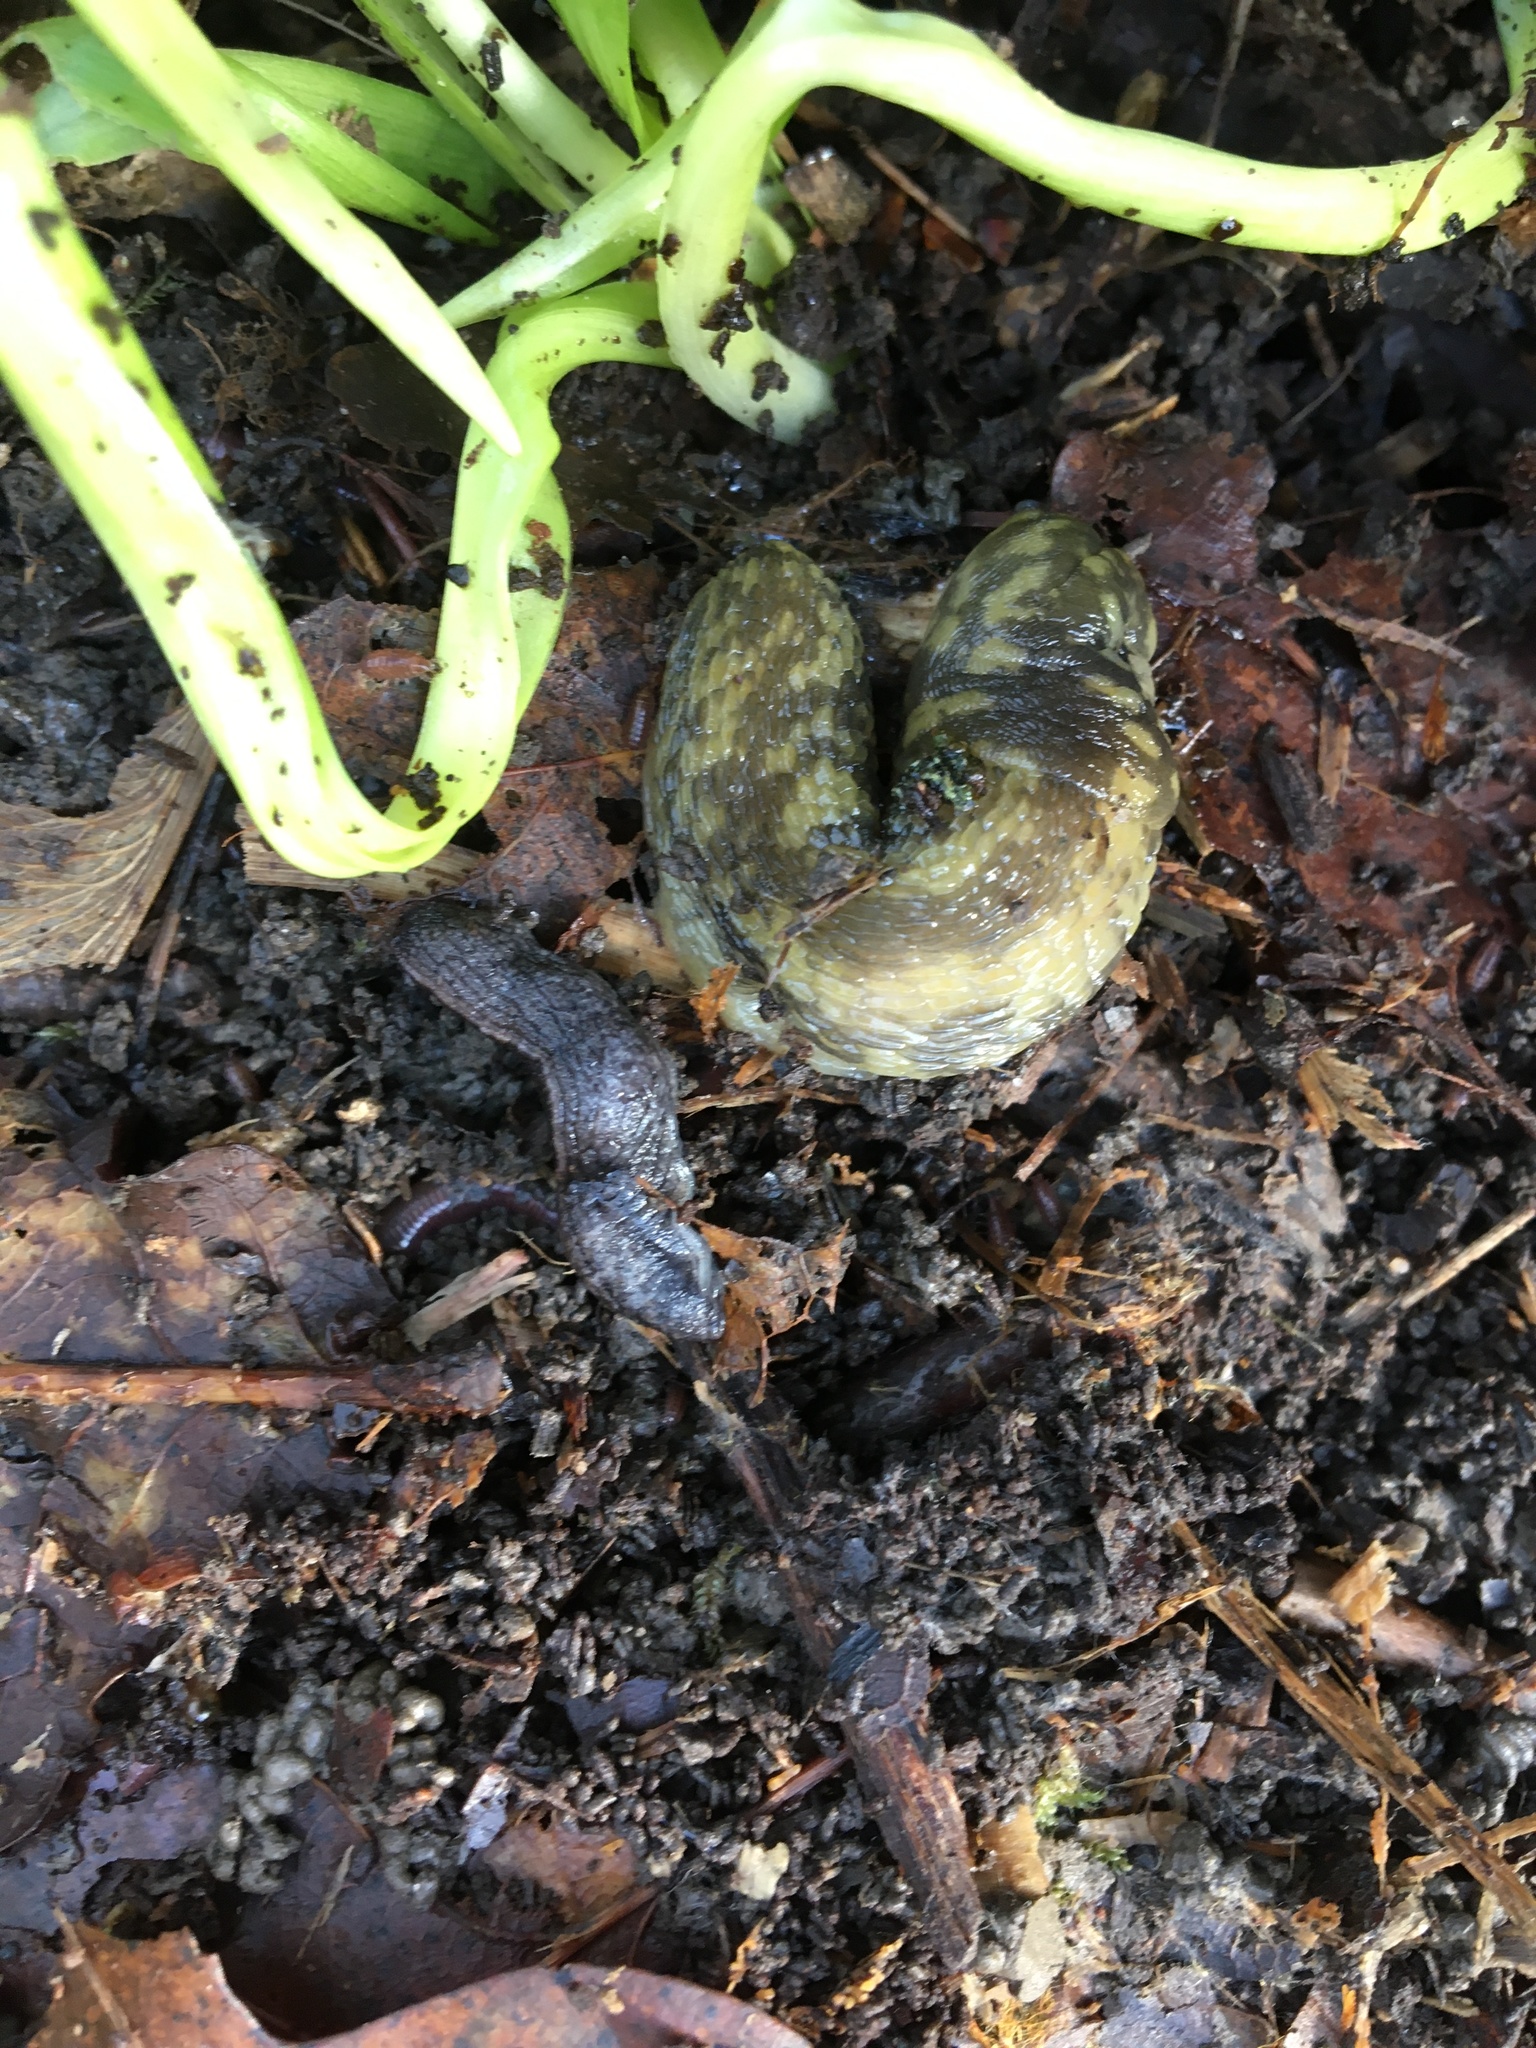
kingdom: Animalia
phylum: Mollusca
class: Gastropoda
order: Stylommatophora
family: Limacidae
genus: Limacus
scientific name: Limacus maculatus
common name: Irish yellow slug
